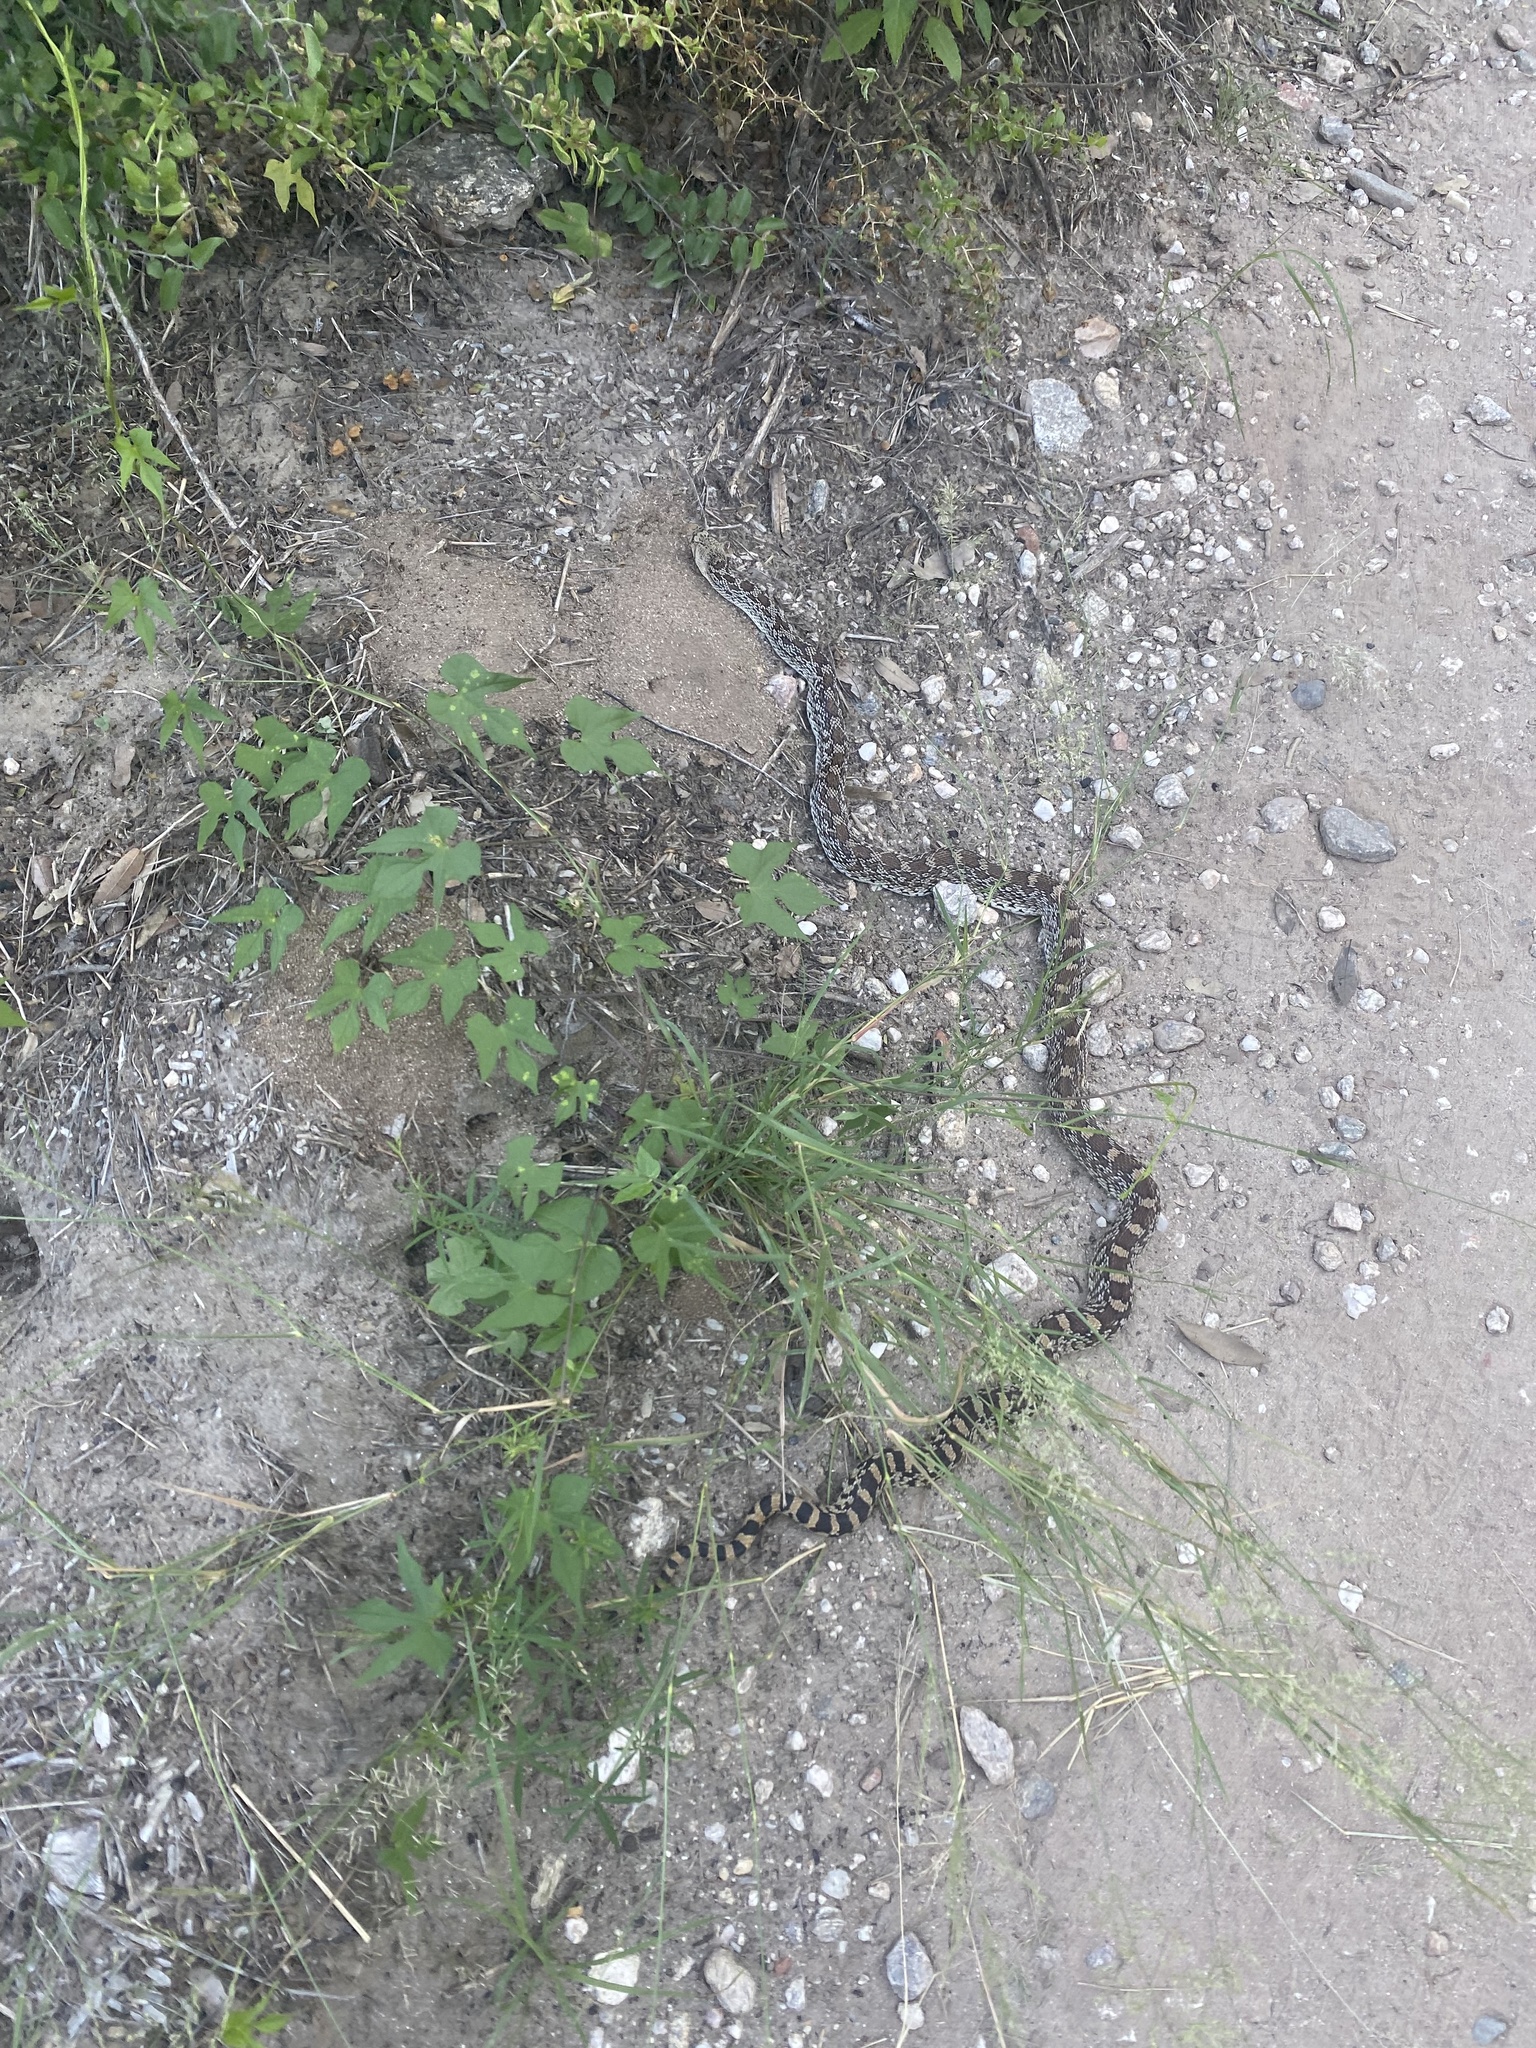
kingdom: Animalia
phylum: Chordata
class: Squamata
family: Colubridae
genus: Pituophis
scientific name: Pituophis catenifer
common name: Gopher snake
